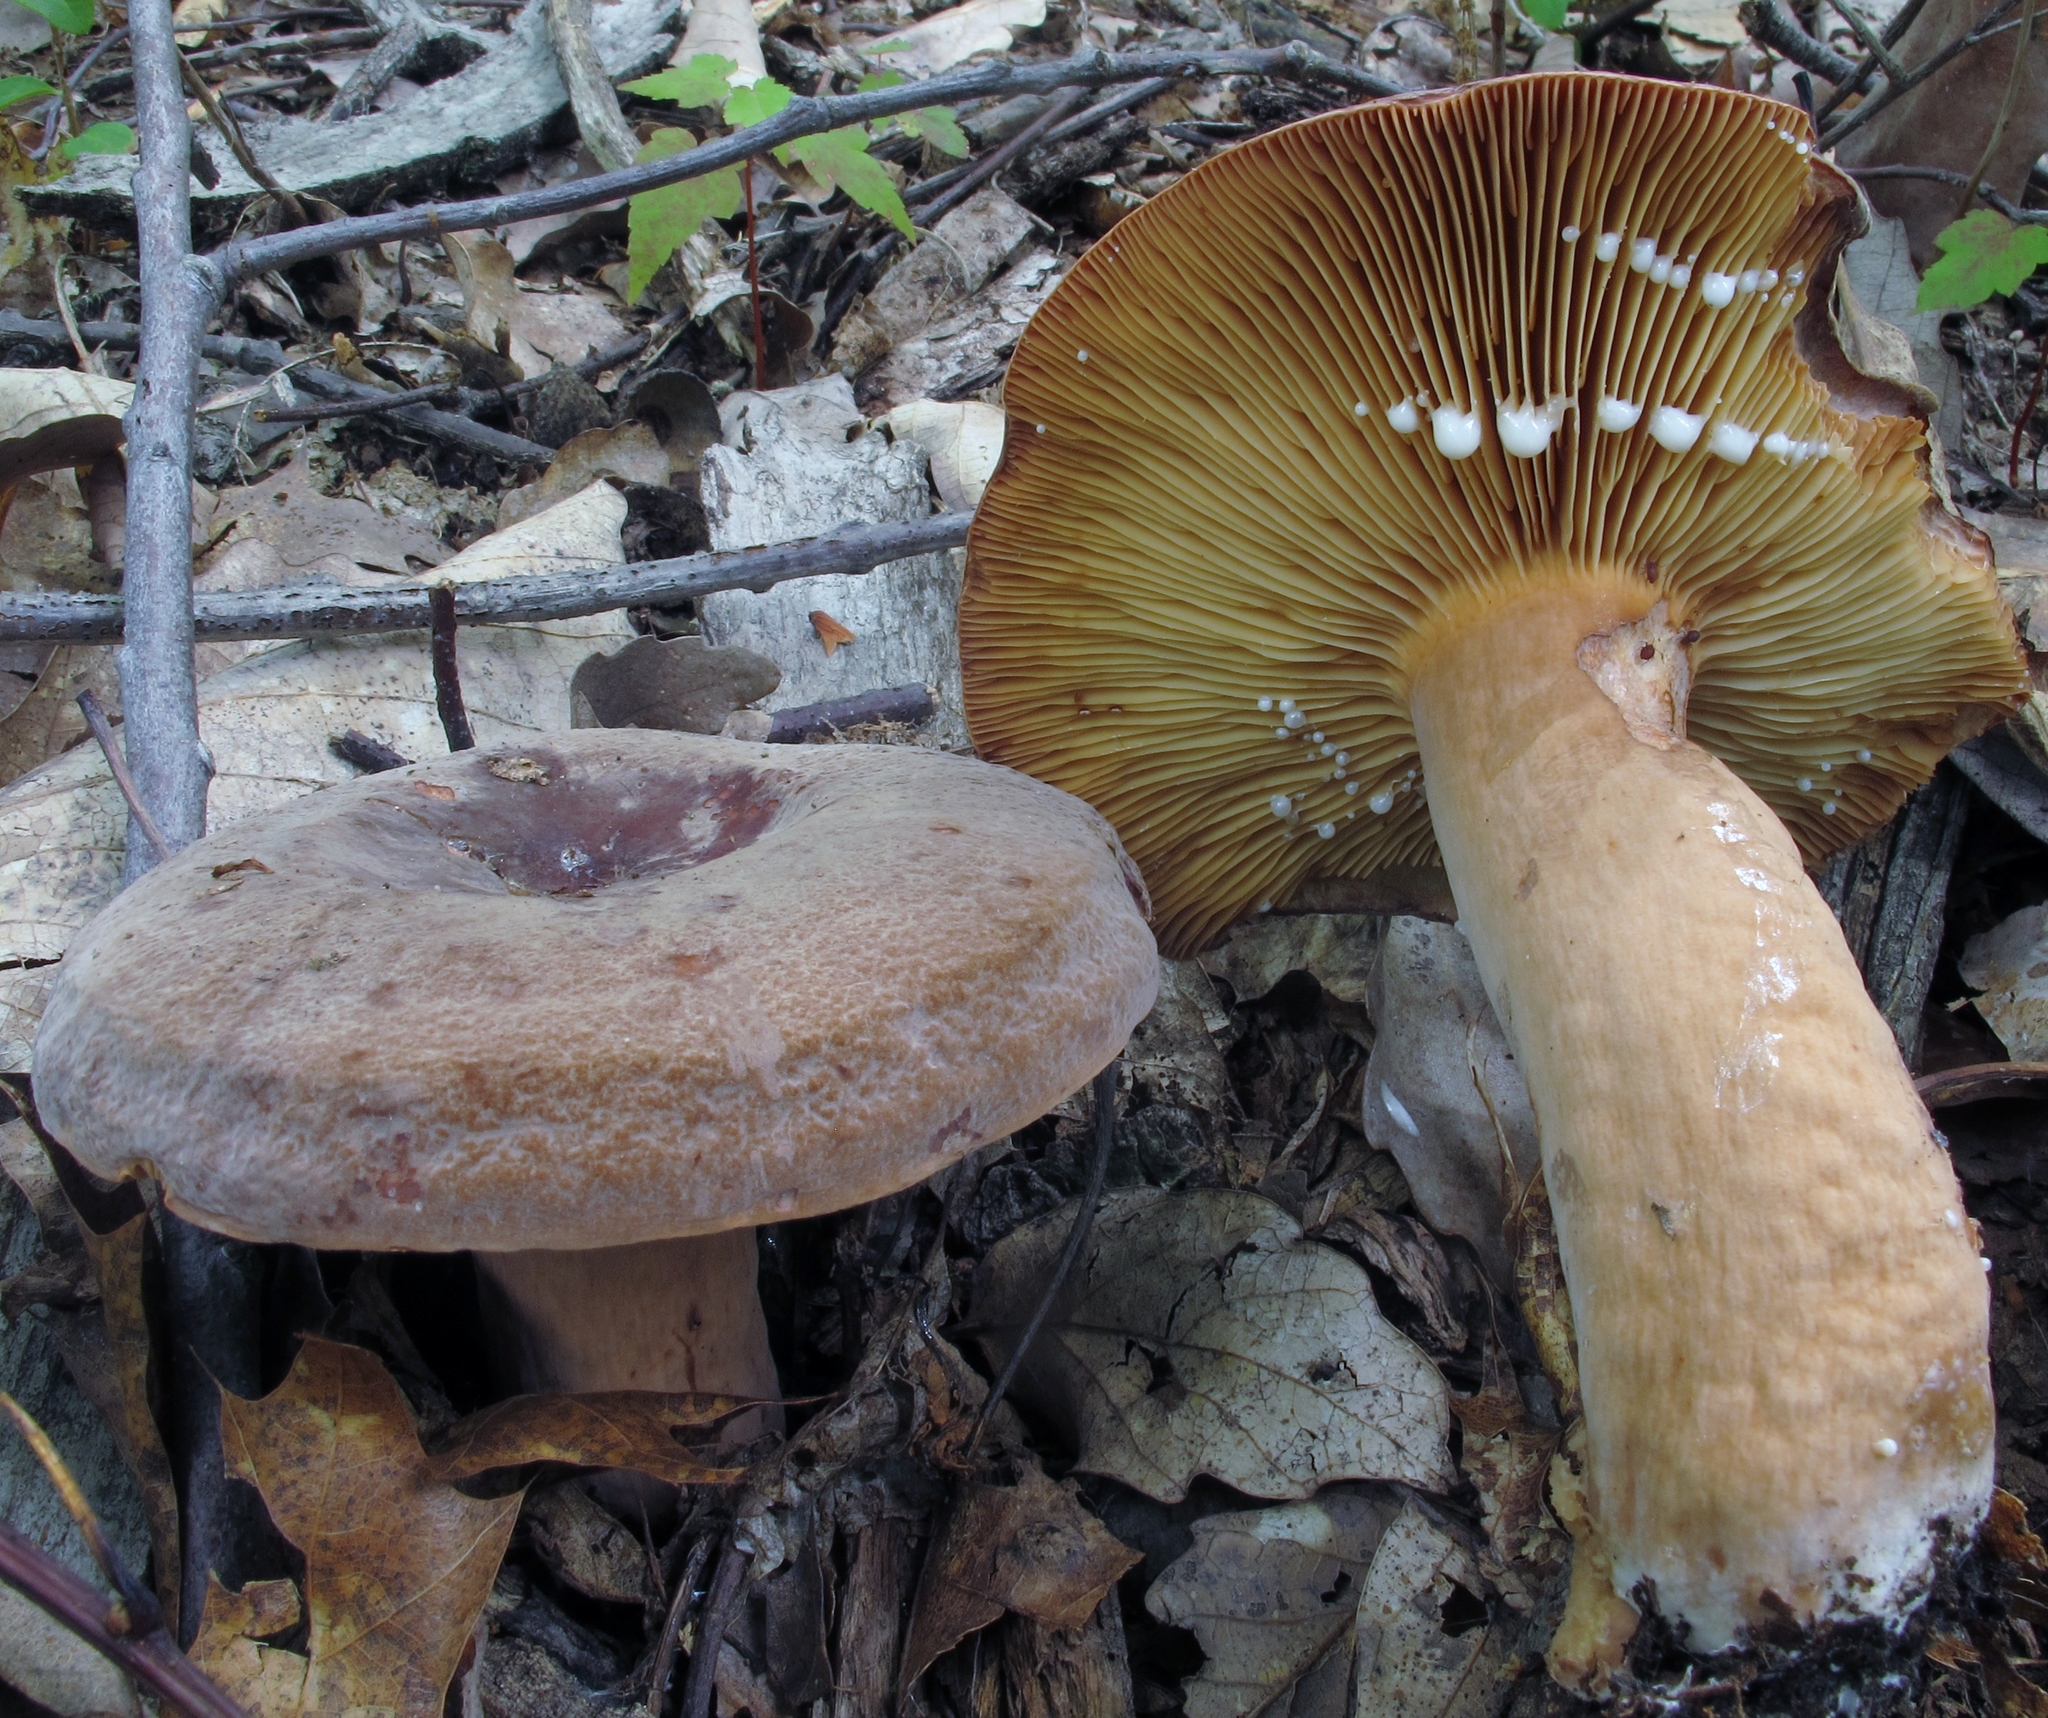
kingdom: Fungi
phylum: Basidiomycota
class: Agaricomycetes
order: Russulales
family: Russulaceae
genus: Lactarius
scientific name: Lactarius corrugis
